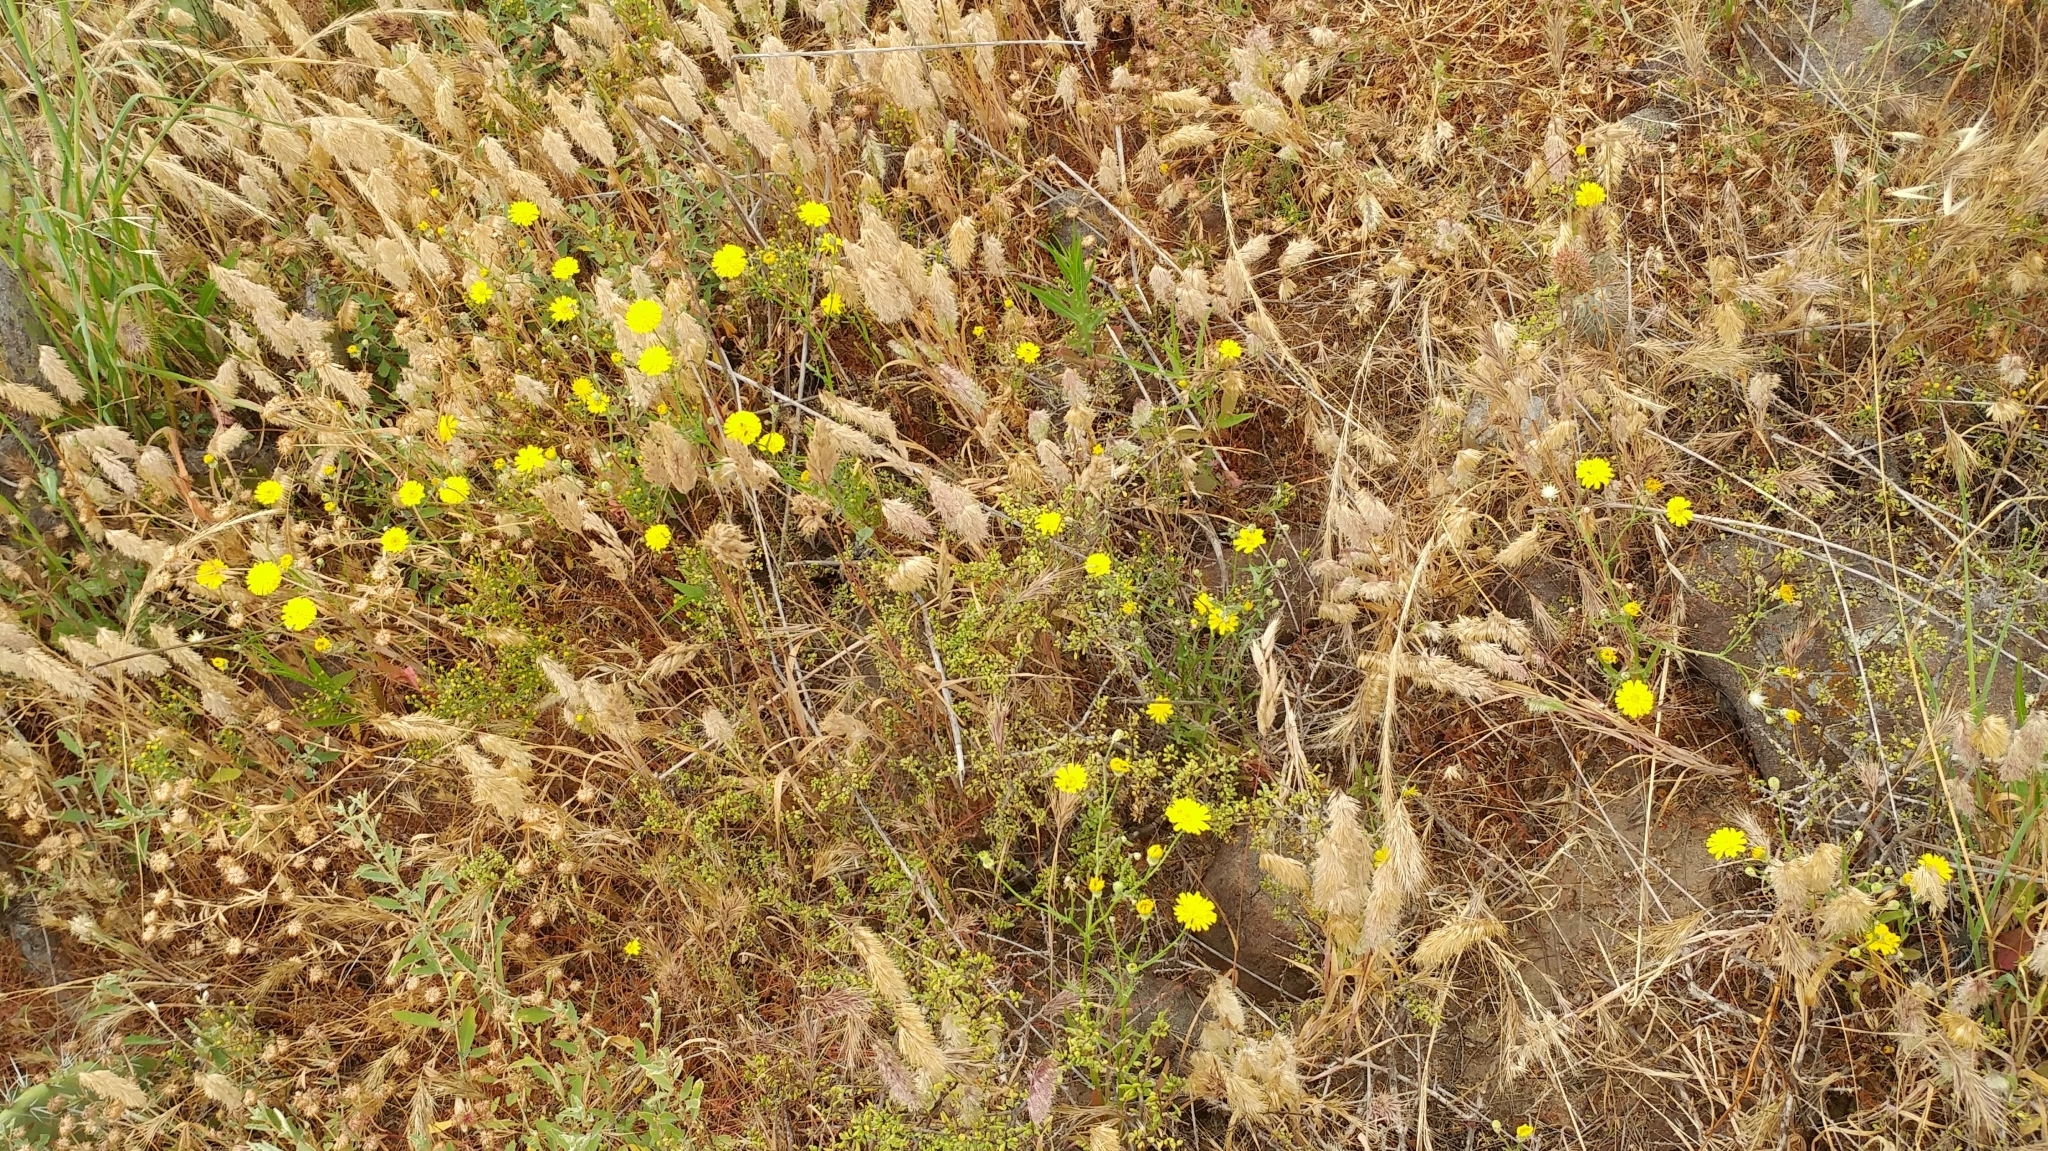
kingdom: Plantae
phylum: Tracheophyta
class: Magnoliopsida
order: Asterales
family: Asteraceae
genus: Malacothrix
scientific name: Malacothrix foliosa
